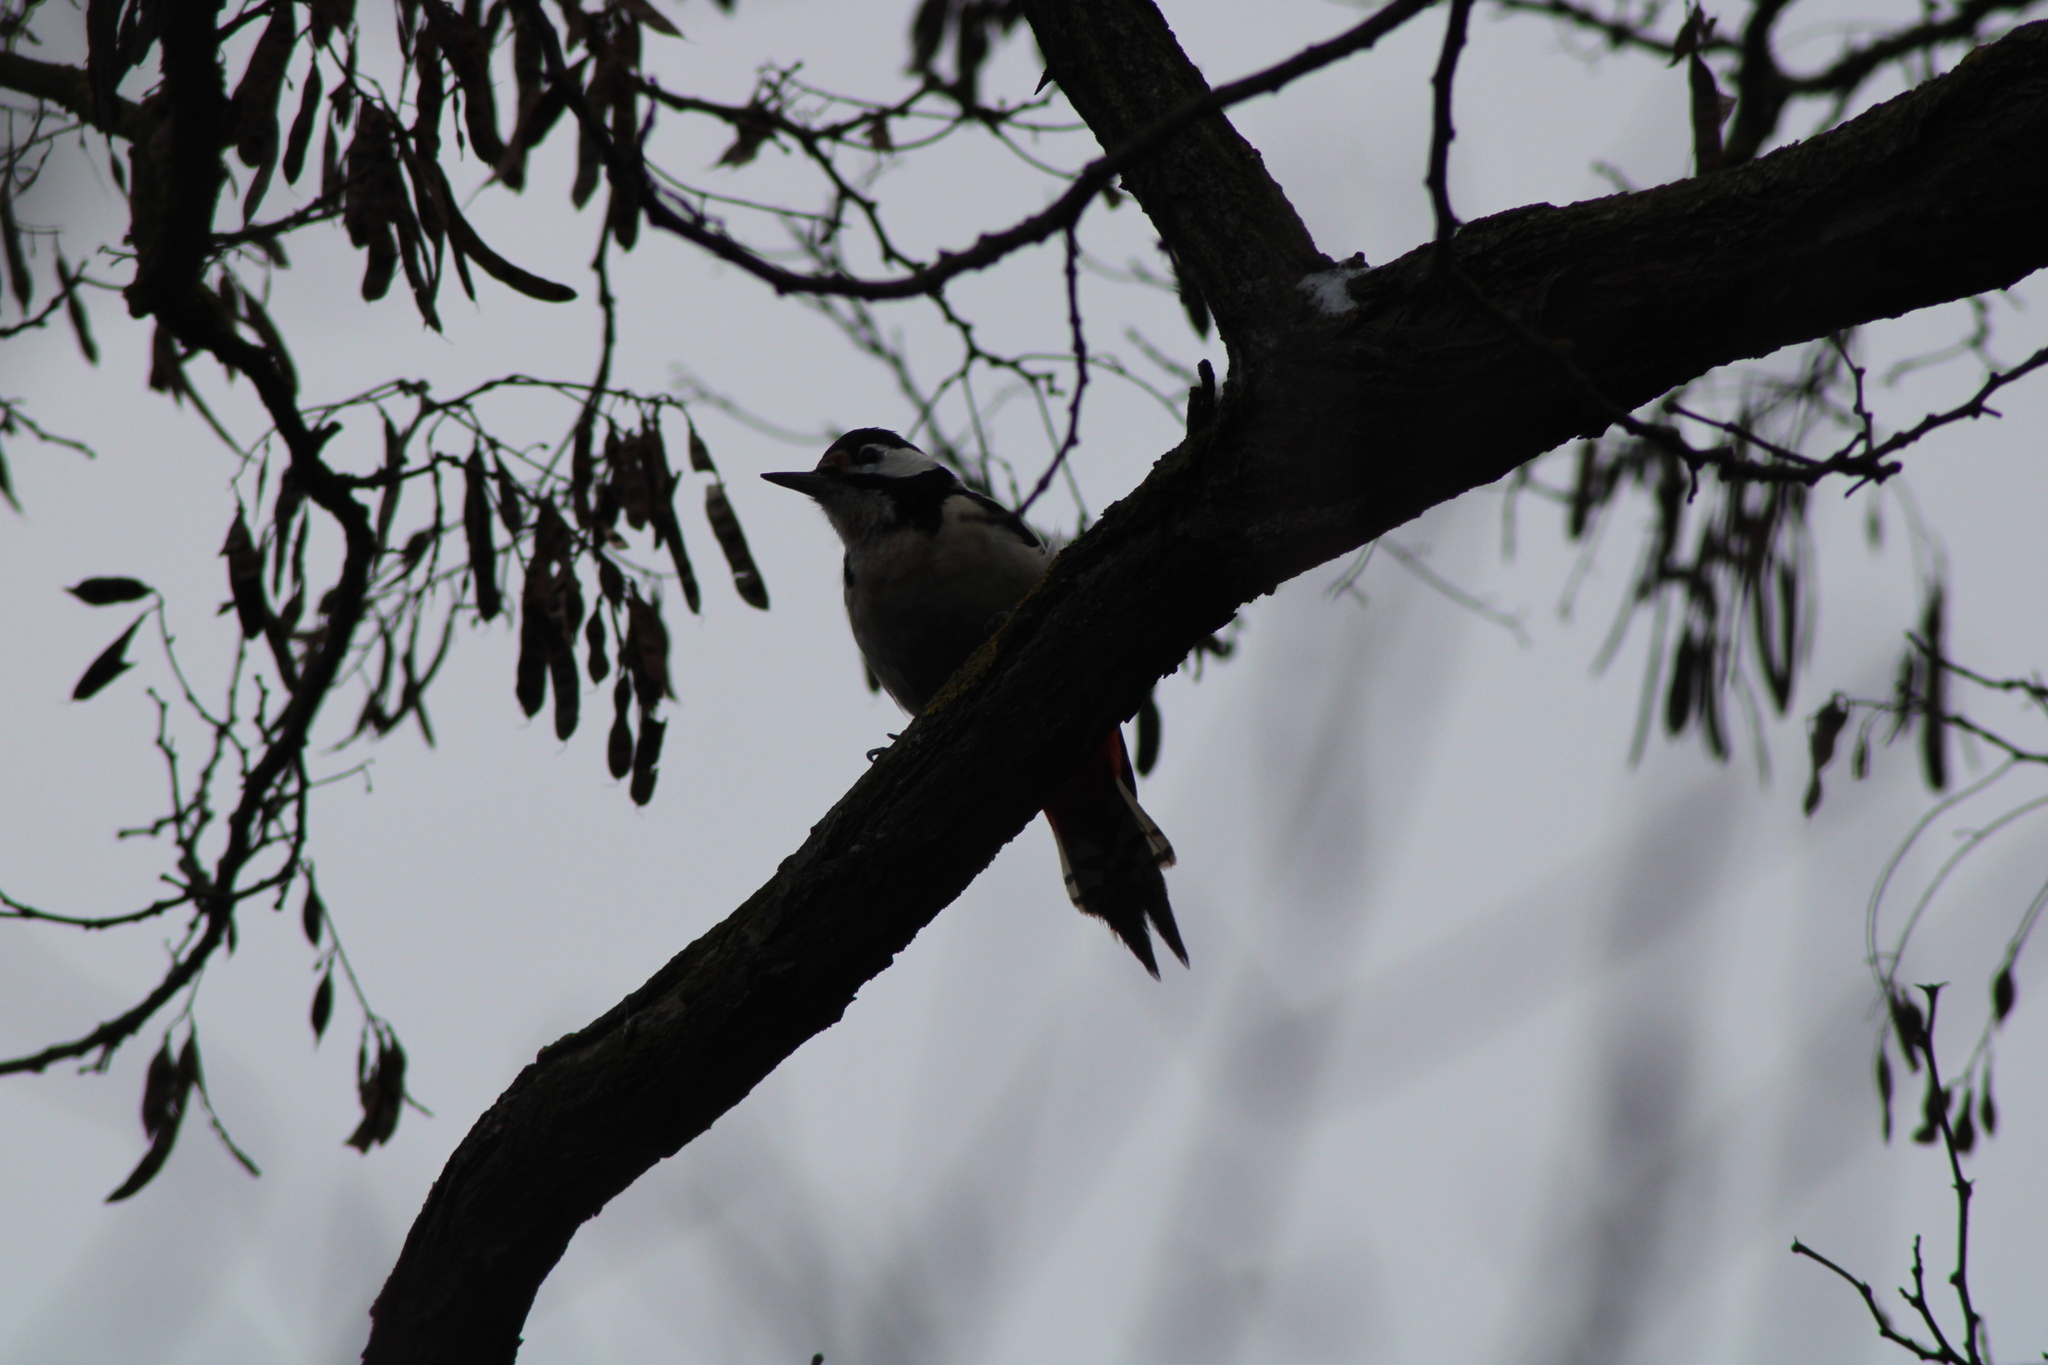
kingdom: Animalia
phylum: Chordata
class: Aves
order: Piciformes
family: Picidae
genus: Dendrocopos
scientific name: Dendrocopos major
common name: Great spotted woodpecker
